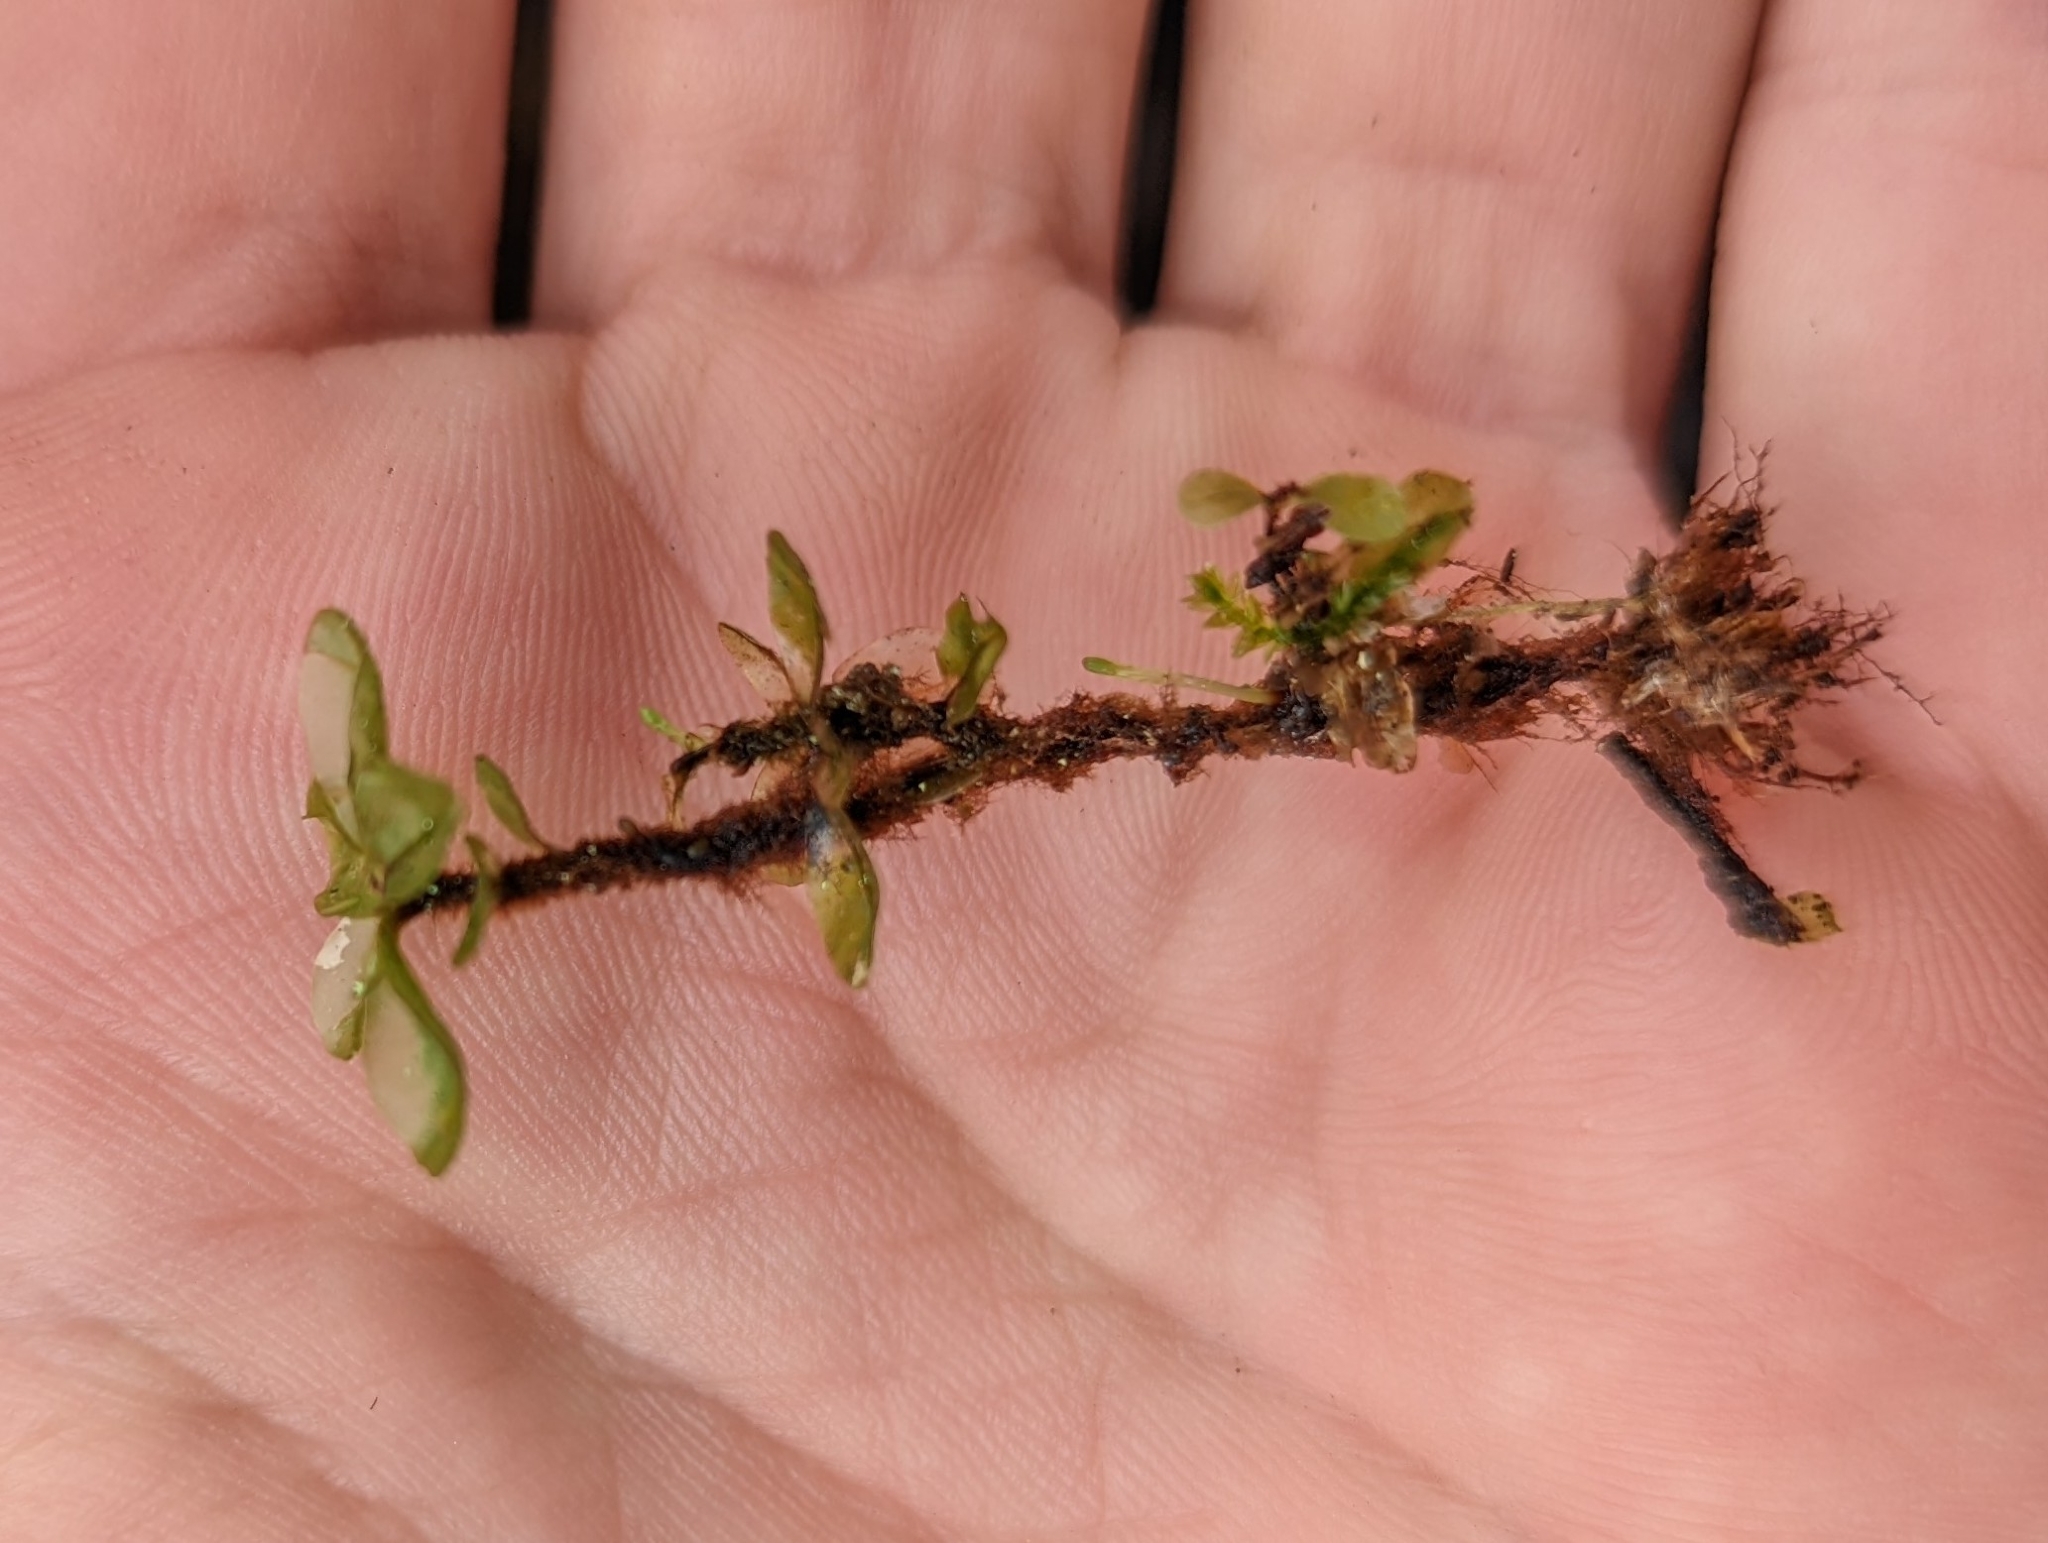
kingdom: Plantae
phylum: Bryophyta
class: Bryopsida
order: Bryales
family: Mniaceae
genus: Rhizomnium
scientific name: Rhizomnium magnifolium
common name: Large-leaved leafy moss
